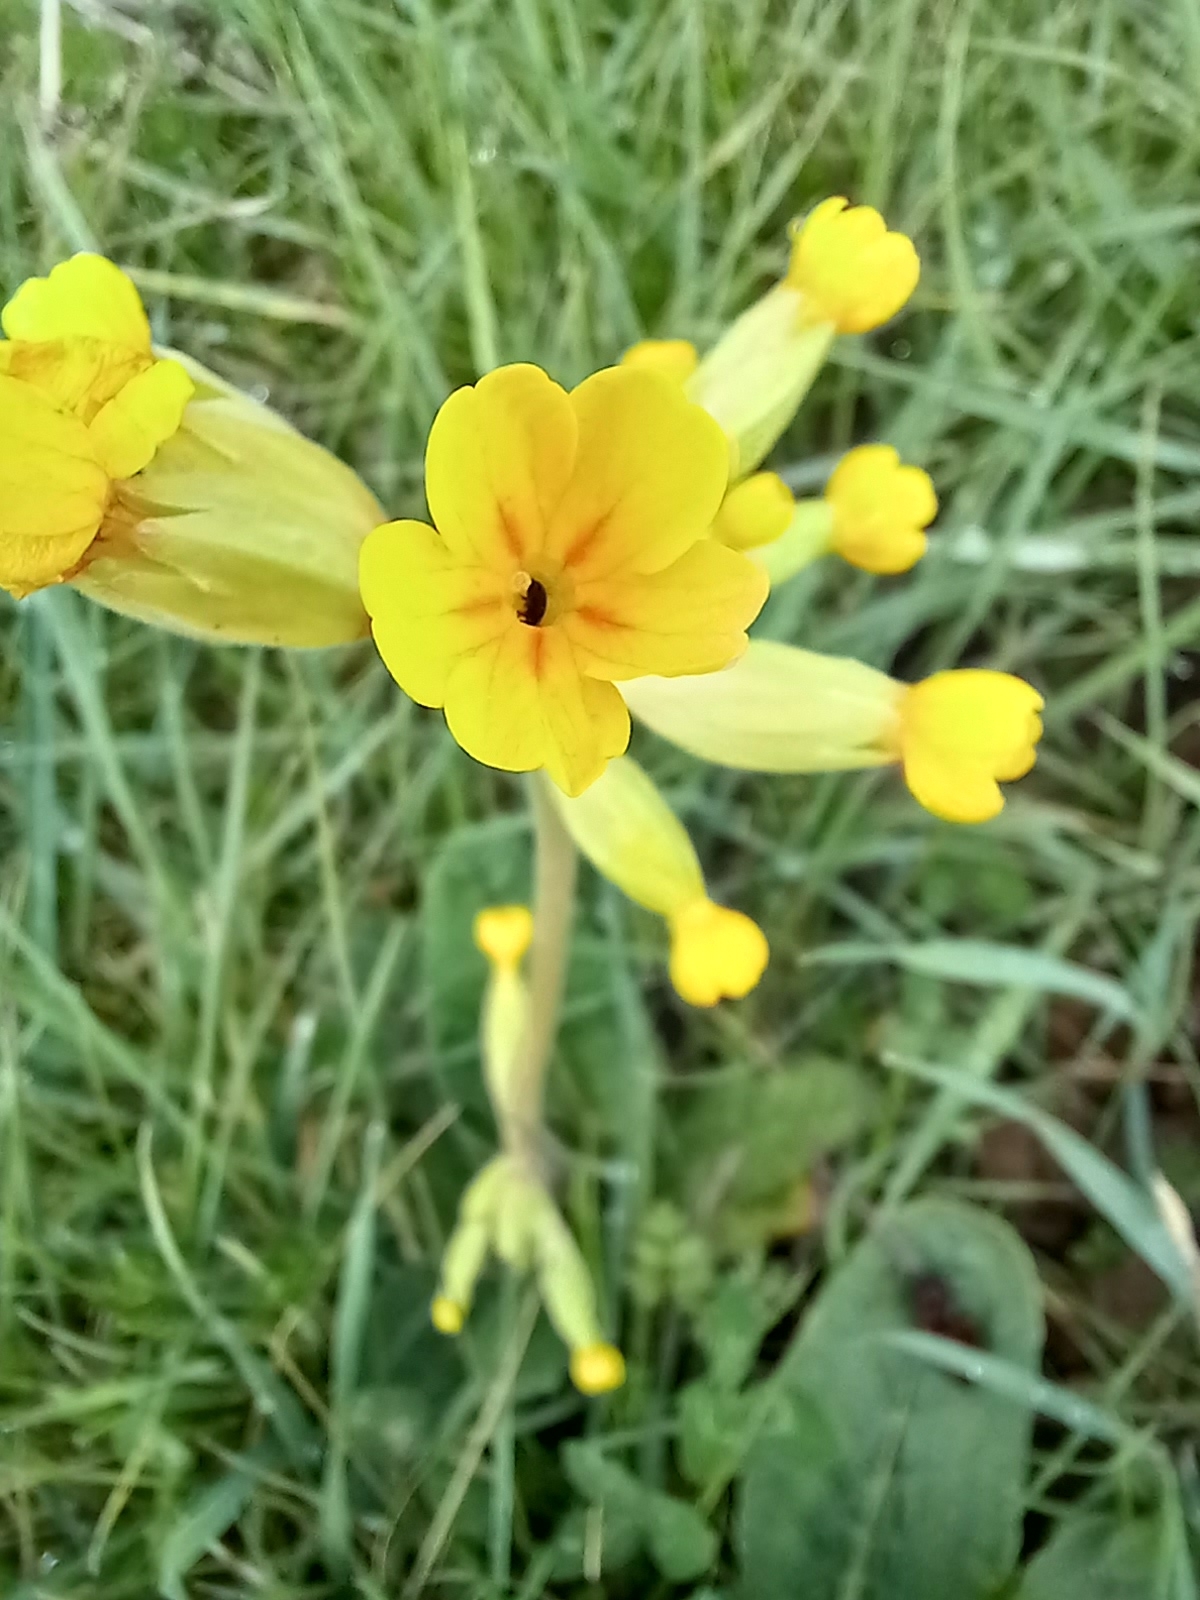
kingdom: Plantae
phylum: Tracheophyta
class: Magnoliopsida
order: Ericales
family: Primulaceae
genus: Primula
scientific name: Primula veris
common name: Cowslip
